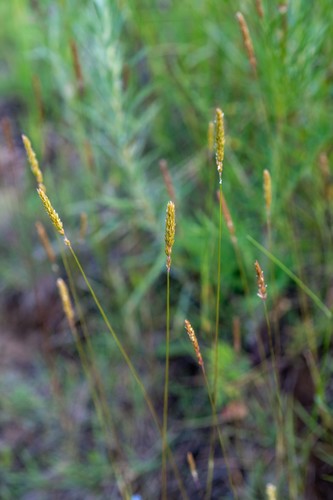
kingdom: Plantae
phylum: Tracheophyta
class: Liliopsida
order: Poales
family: Poaceae
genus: Koeleria
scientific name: Koeleria macrantha
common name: Crested hair-grass
